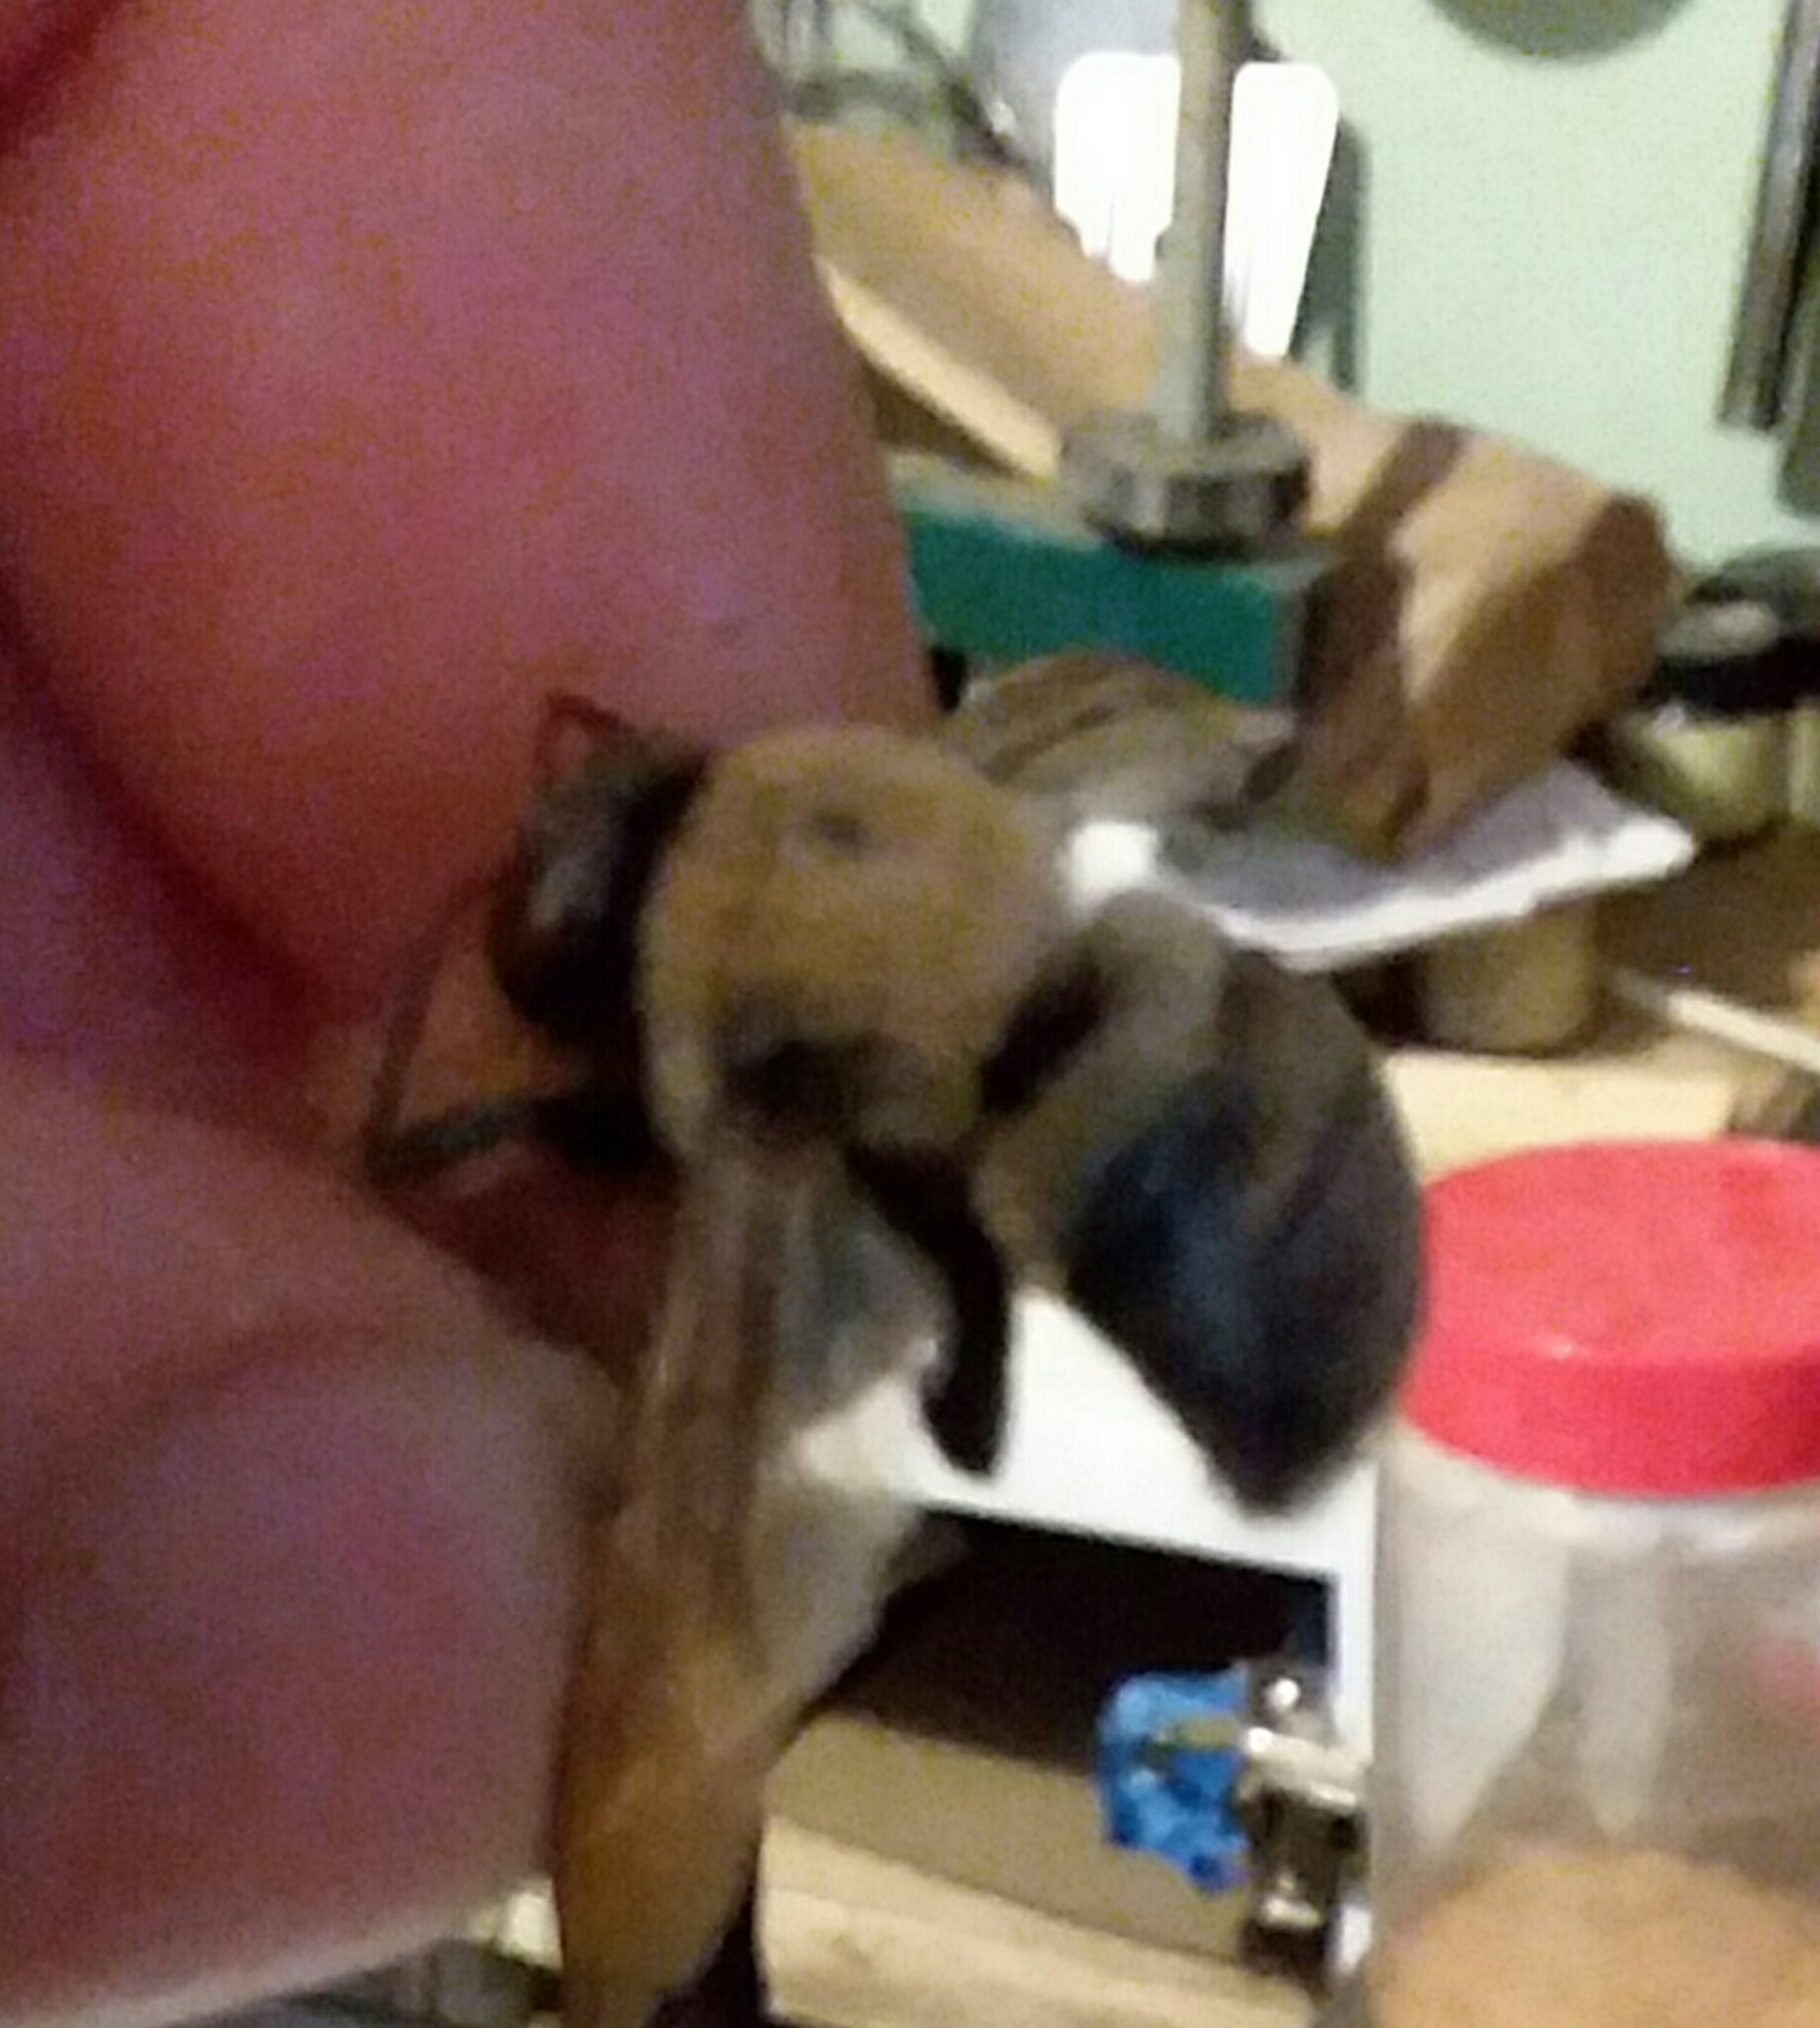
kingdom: Animalia
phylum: Arthropoda
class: Insecta
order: Hymenoptera
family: Apidae
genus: Xylocopa
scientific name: Xylocopa virginica
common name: Carpenter bee
